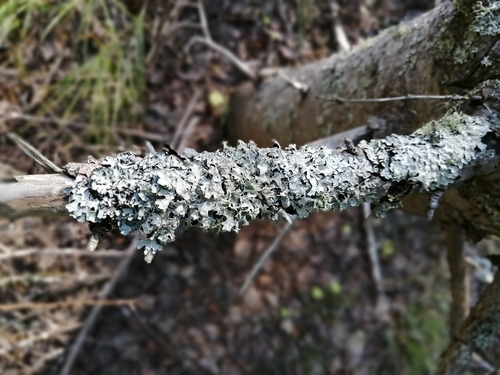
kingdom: Fungi
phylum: Ascomycota
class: Lecanoromycetes
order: Lecanorales
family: Parmeliaceae
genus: Parmelia
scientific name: Parmelia sulcata
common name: Netted shield lichen
